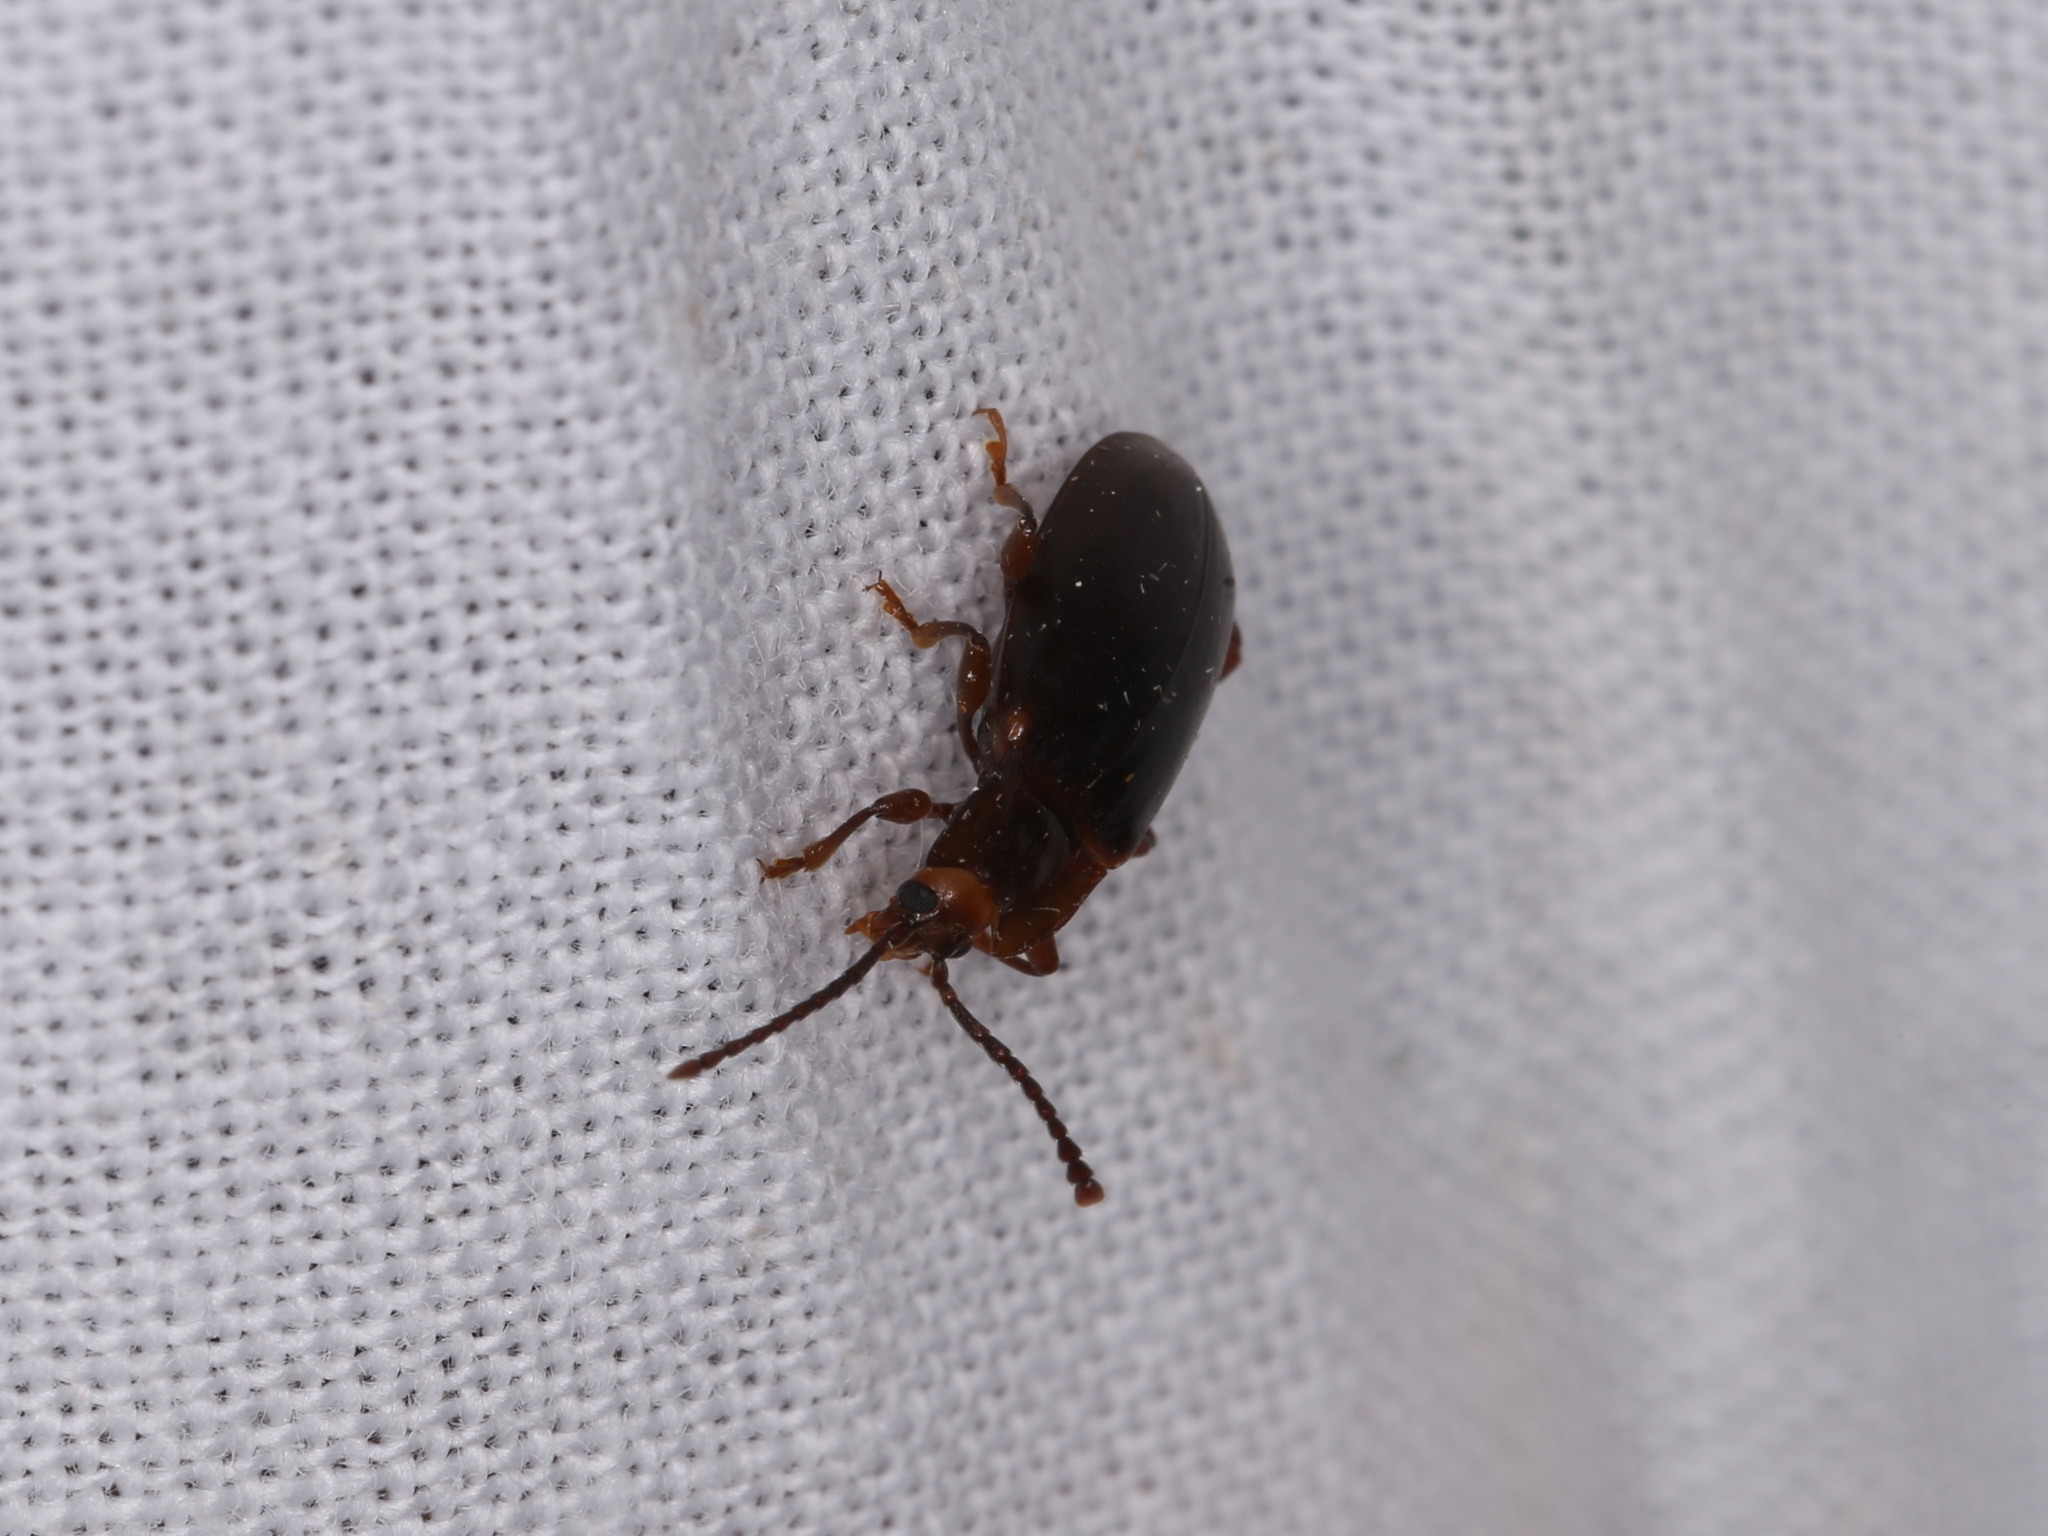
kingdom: Animalia
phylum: Arthropoda
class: Insecta
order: Coleoptera
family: Endomychidae
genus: Aphorista
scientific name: Aphorista morosa
